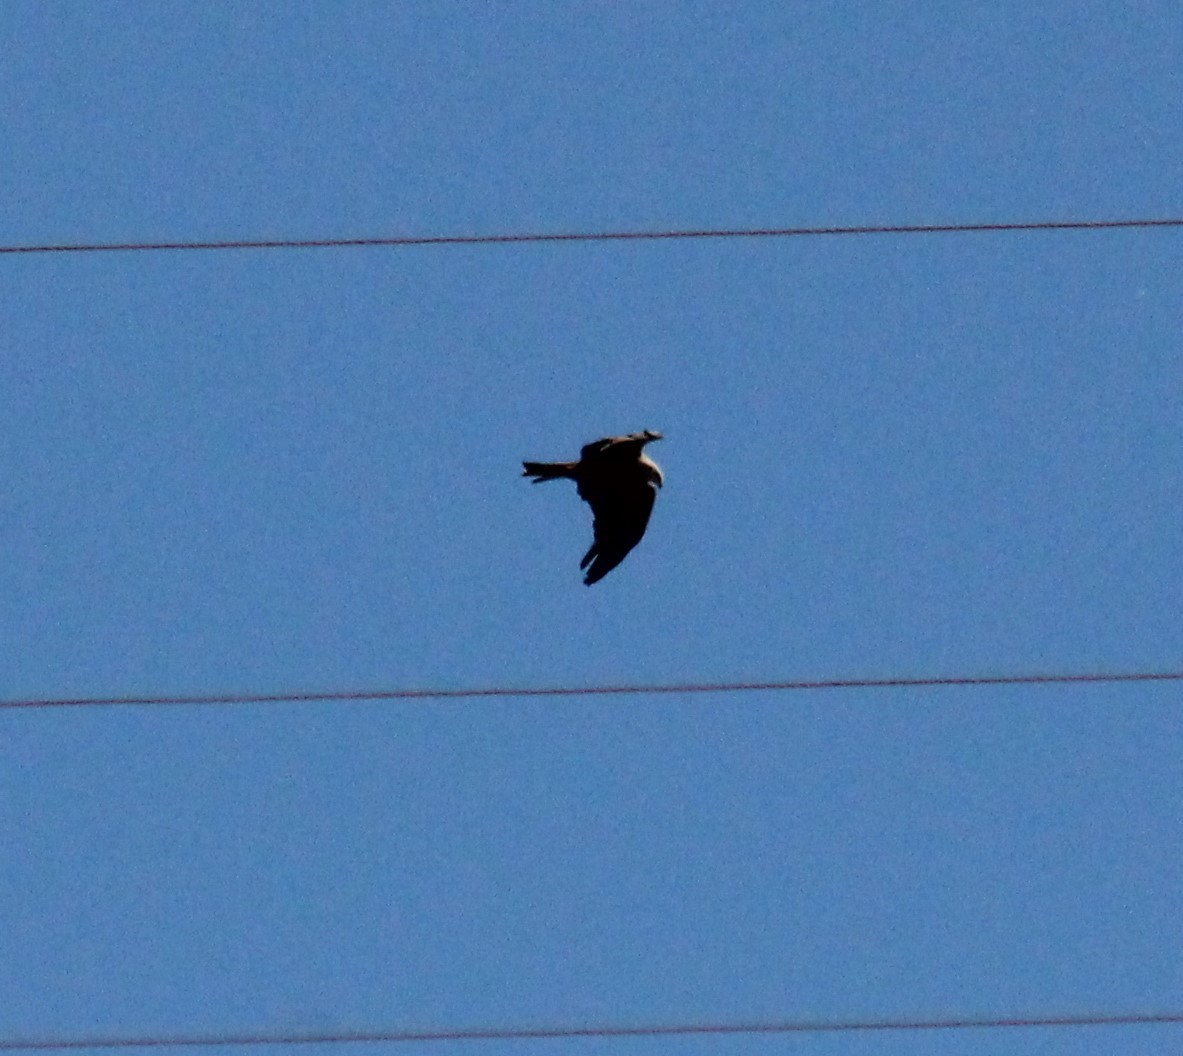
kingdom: Animalia
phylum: Chordata
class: Aves
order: Accipitriformes
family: Accipitridae
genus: Milvus
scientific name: Milvus migrans
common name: Black kite
